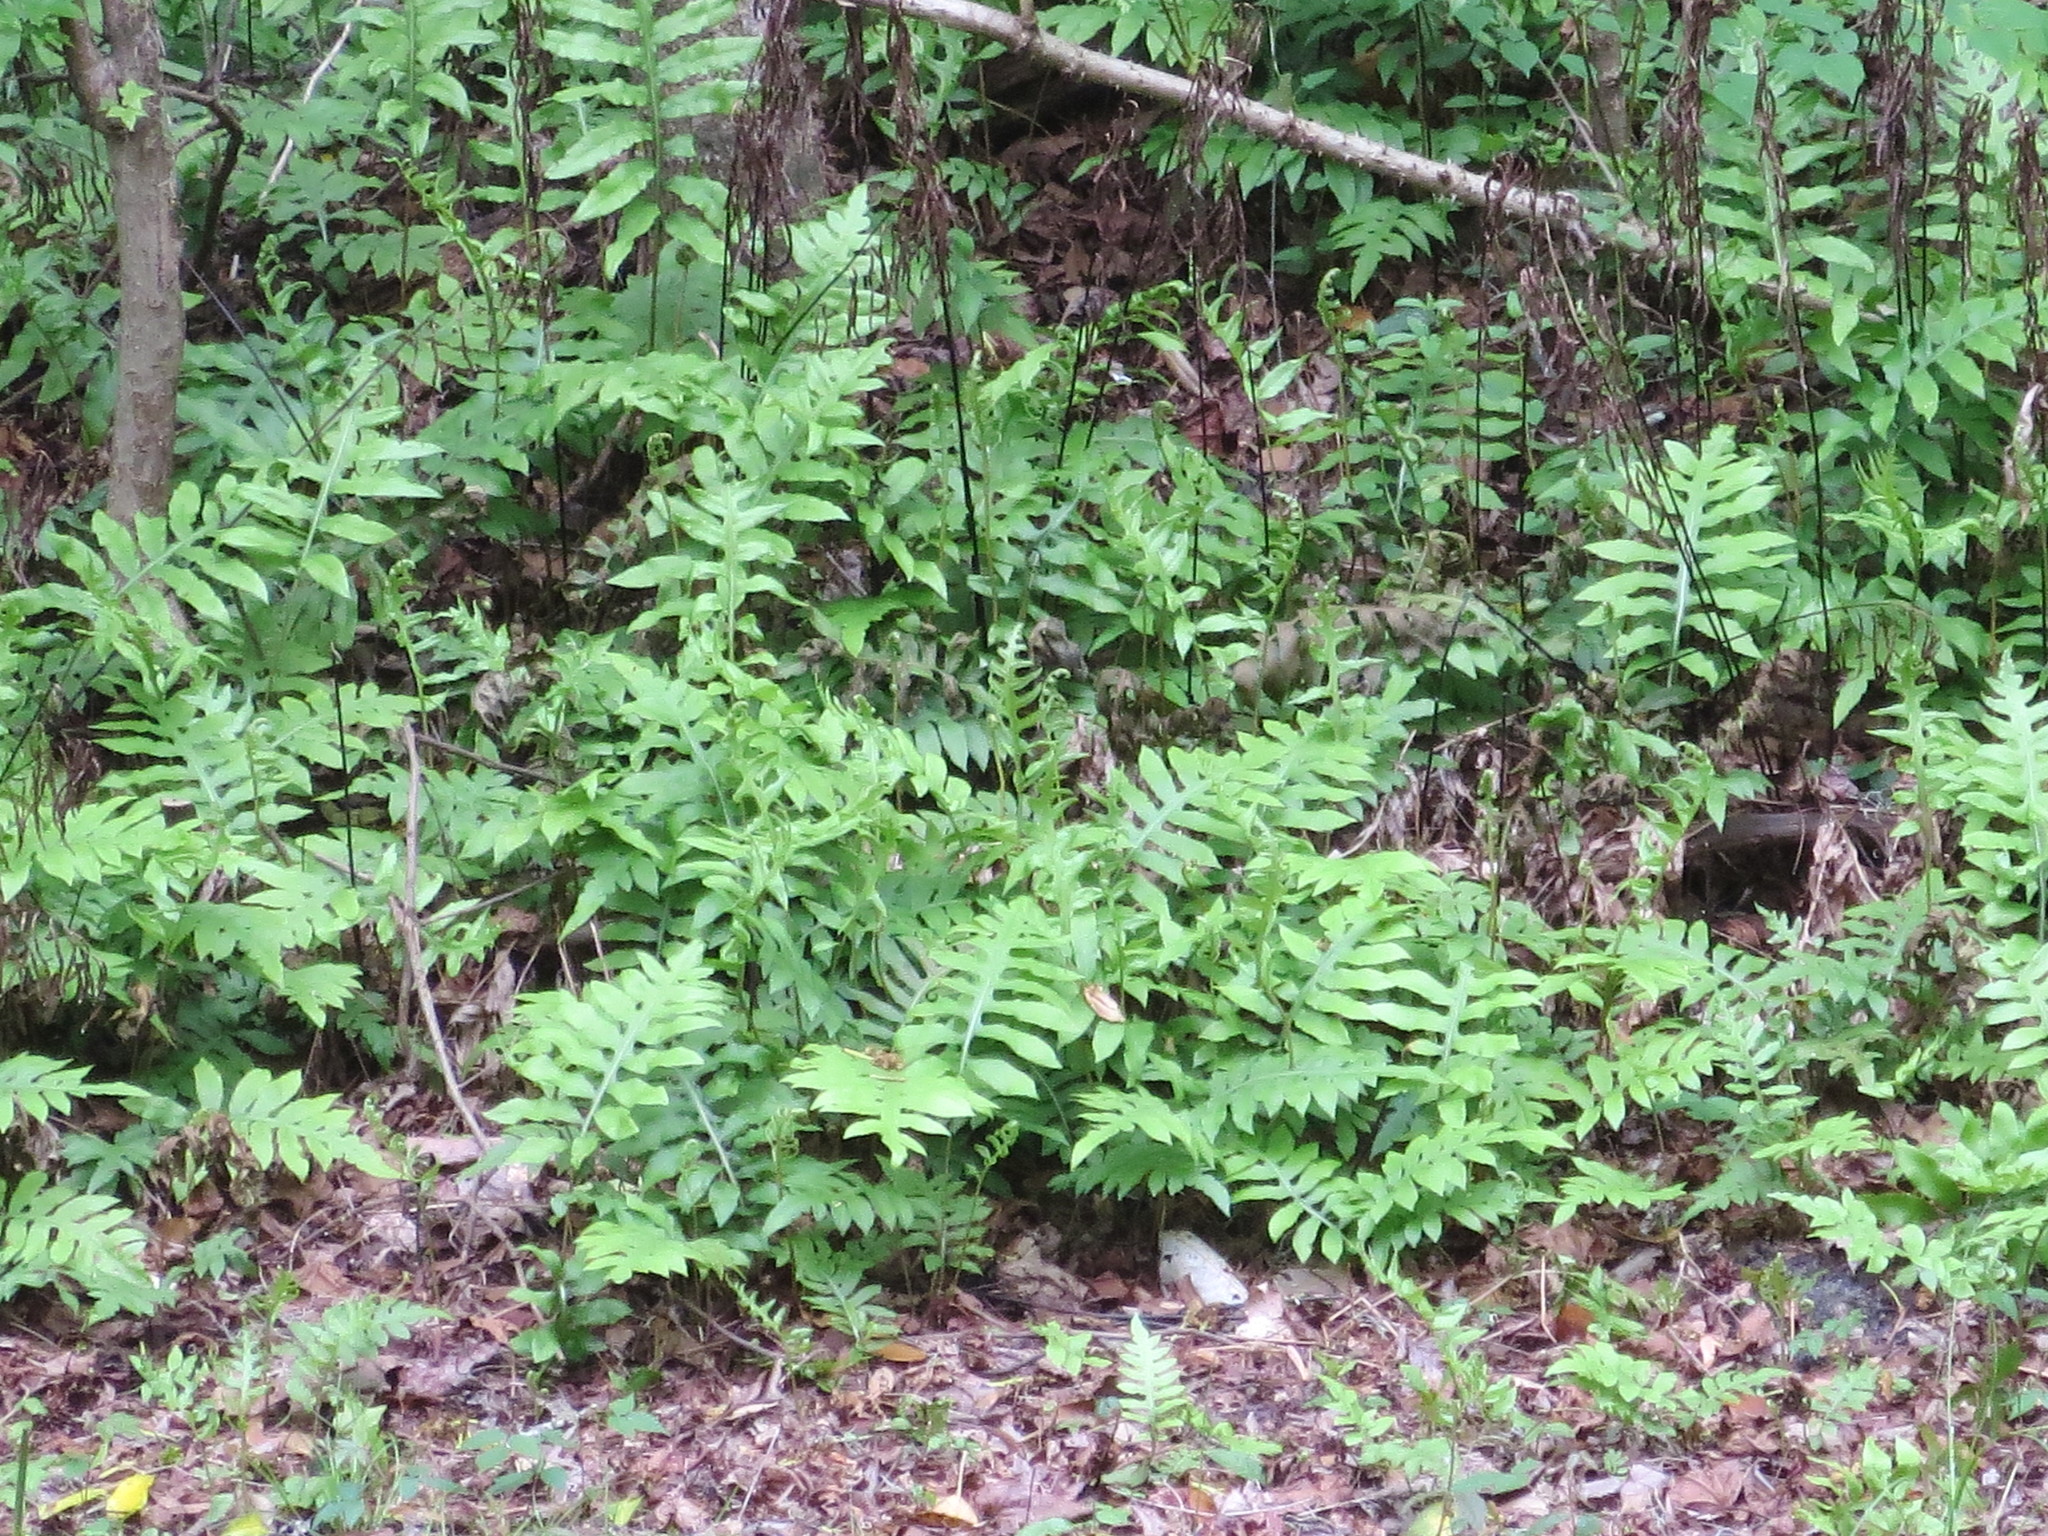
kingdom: Plantae
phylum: Tracheophyta
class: Polypodiopsida
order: Polypodiales
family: Blechnaceae
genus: Lorinseria
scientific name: Lorinseria areolata
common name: Dwarf chain fern
